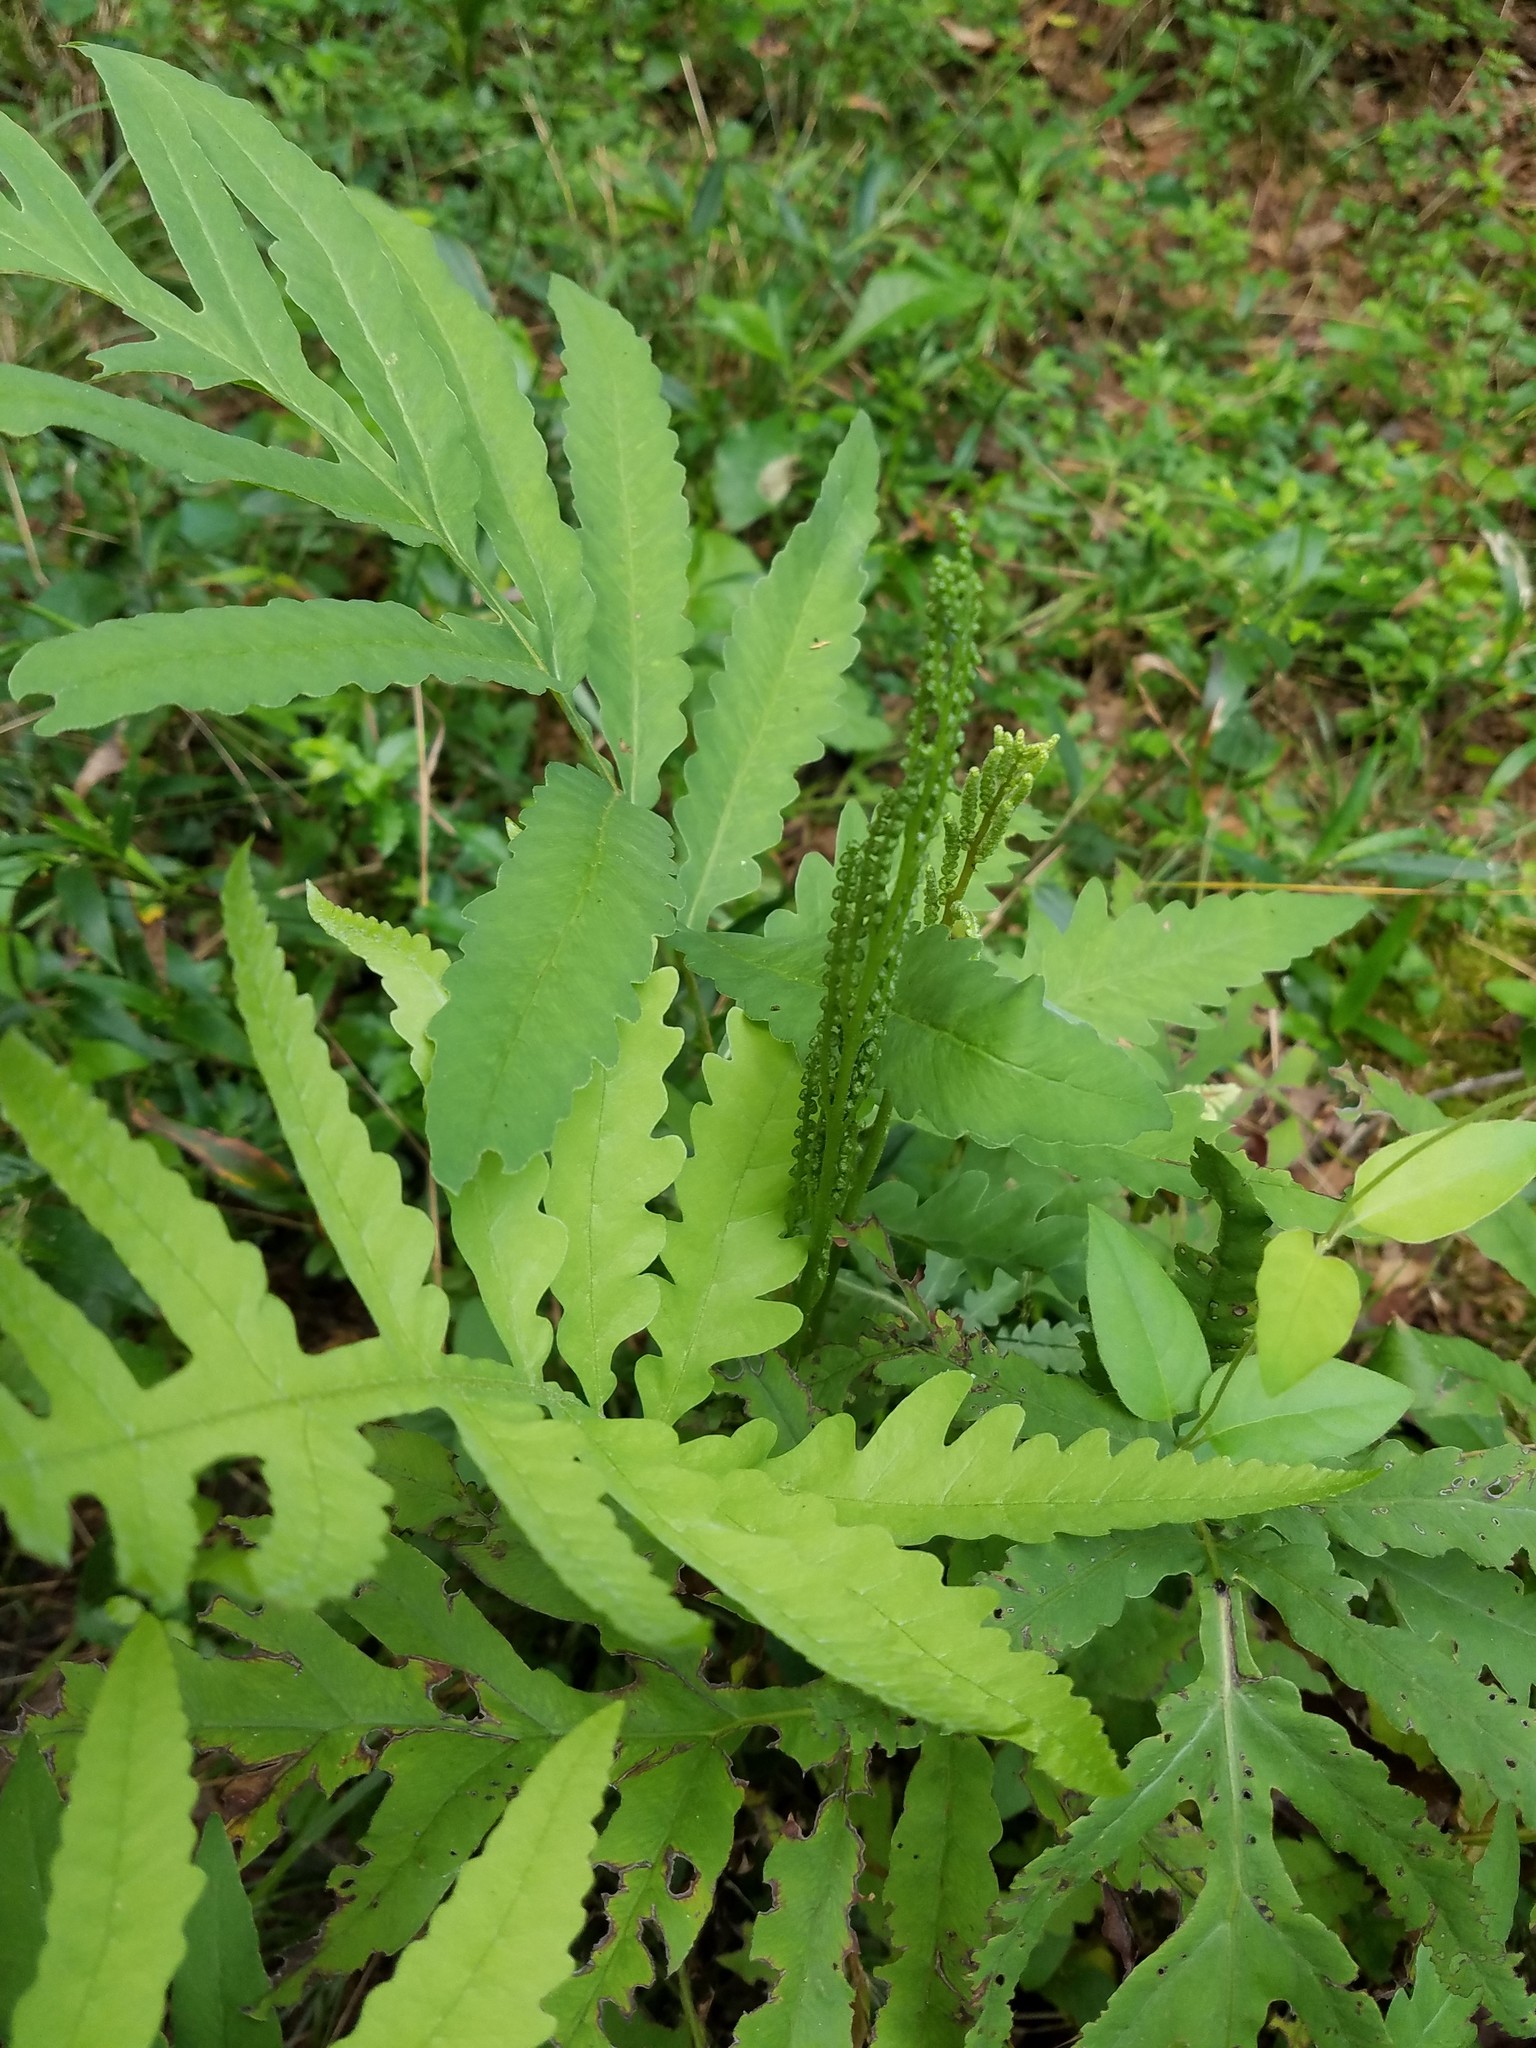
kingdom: Plantae
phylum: Tracheophyta
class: Polypodiopsida
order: Polypodiales
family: Onocleaceae
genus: Onoclea
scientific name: Onoclea sensibilis
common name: Sensitive fern
